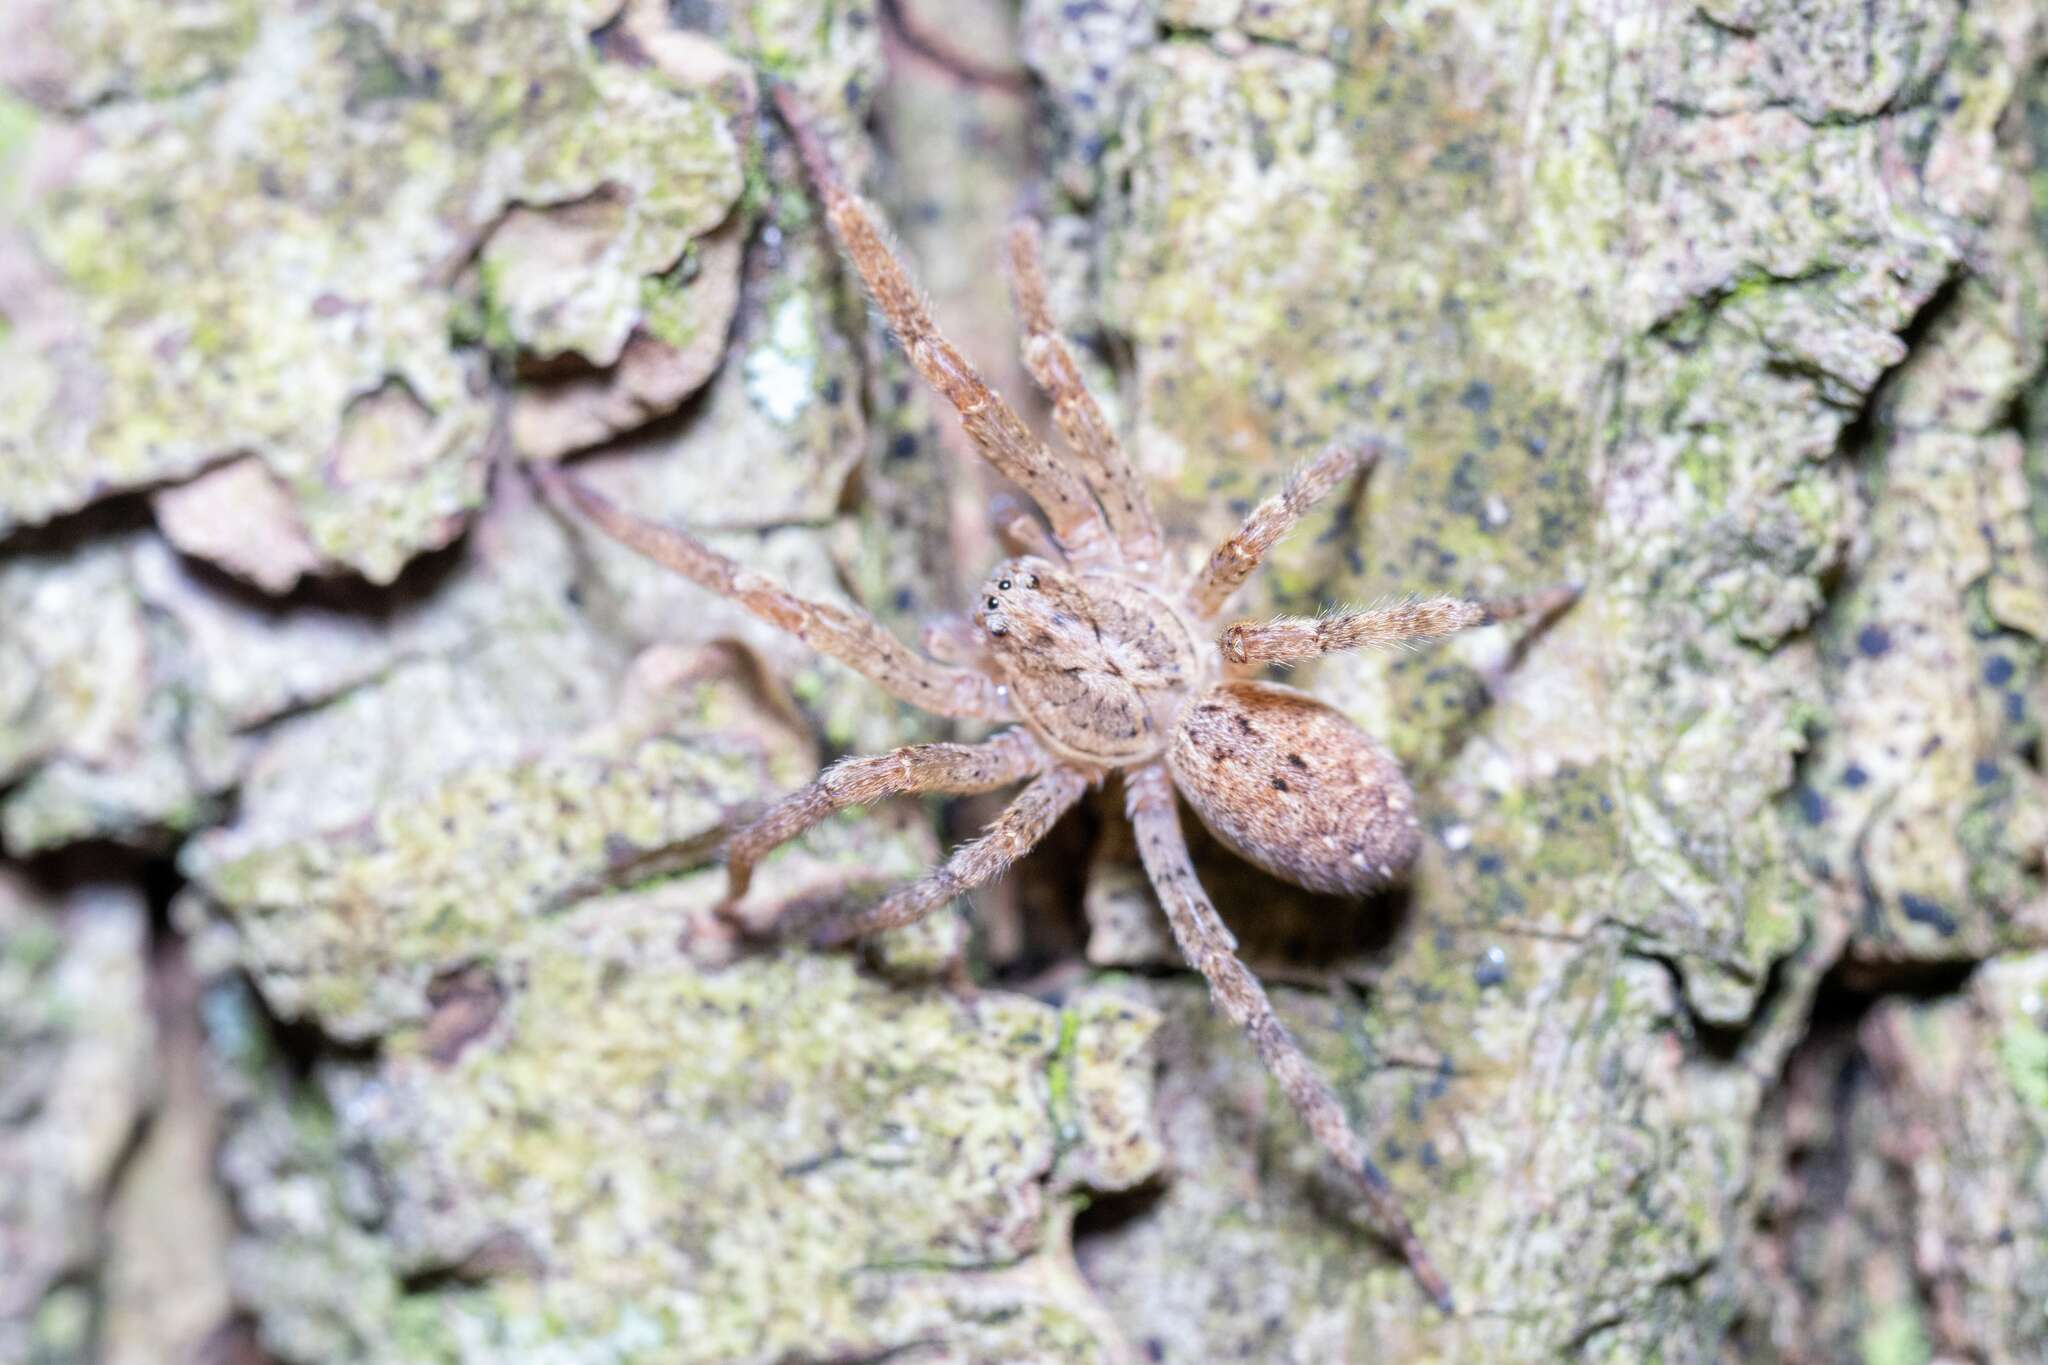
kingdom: Animalia
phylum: Arthropoda
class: Arachnida
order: Araneae
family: Zoropsidae
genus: Zoropsis
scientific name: Zoropsis spinimana
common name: Zoropsid spider
